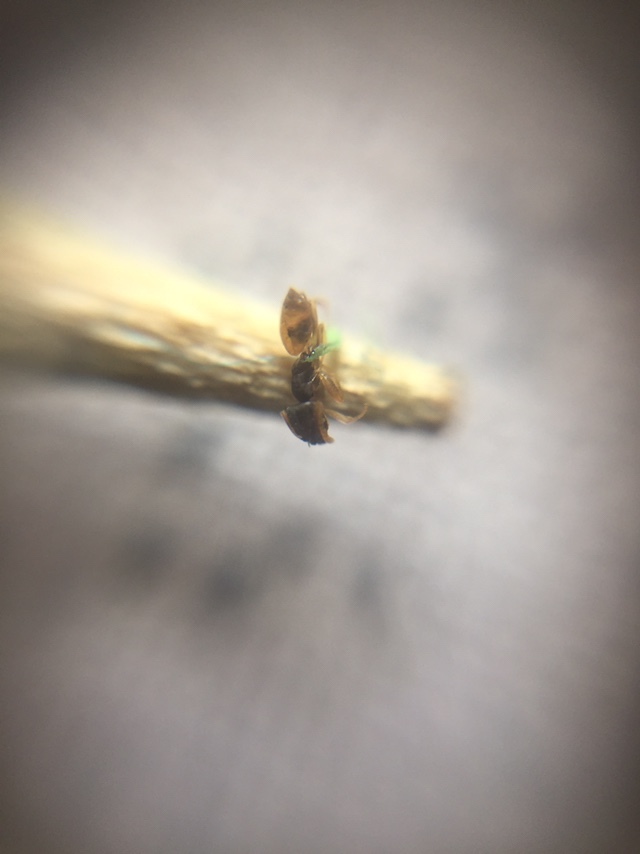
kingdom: Animalia
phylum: Arthropoda
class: Insecta
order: Hymenoptera
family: Formicidae
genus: Tapinoma
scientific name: Tapinoma melanocephalum
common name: Ghost ant
